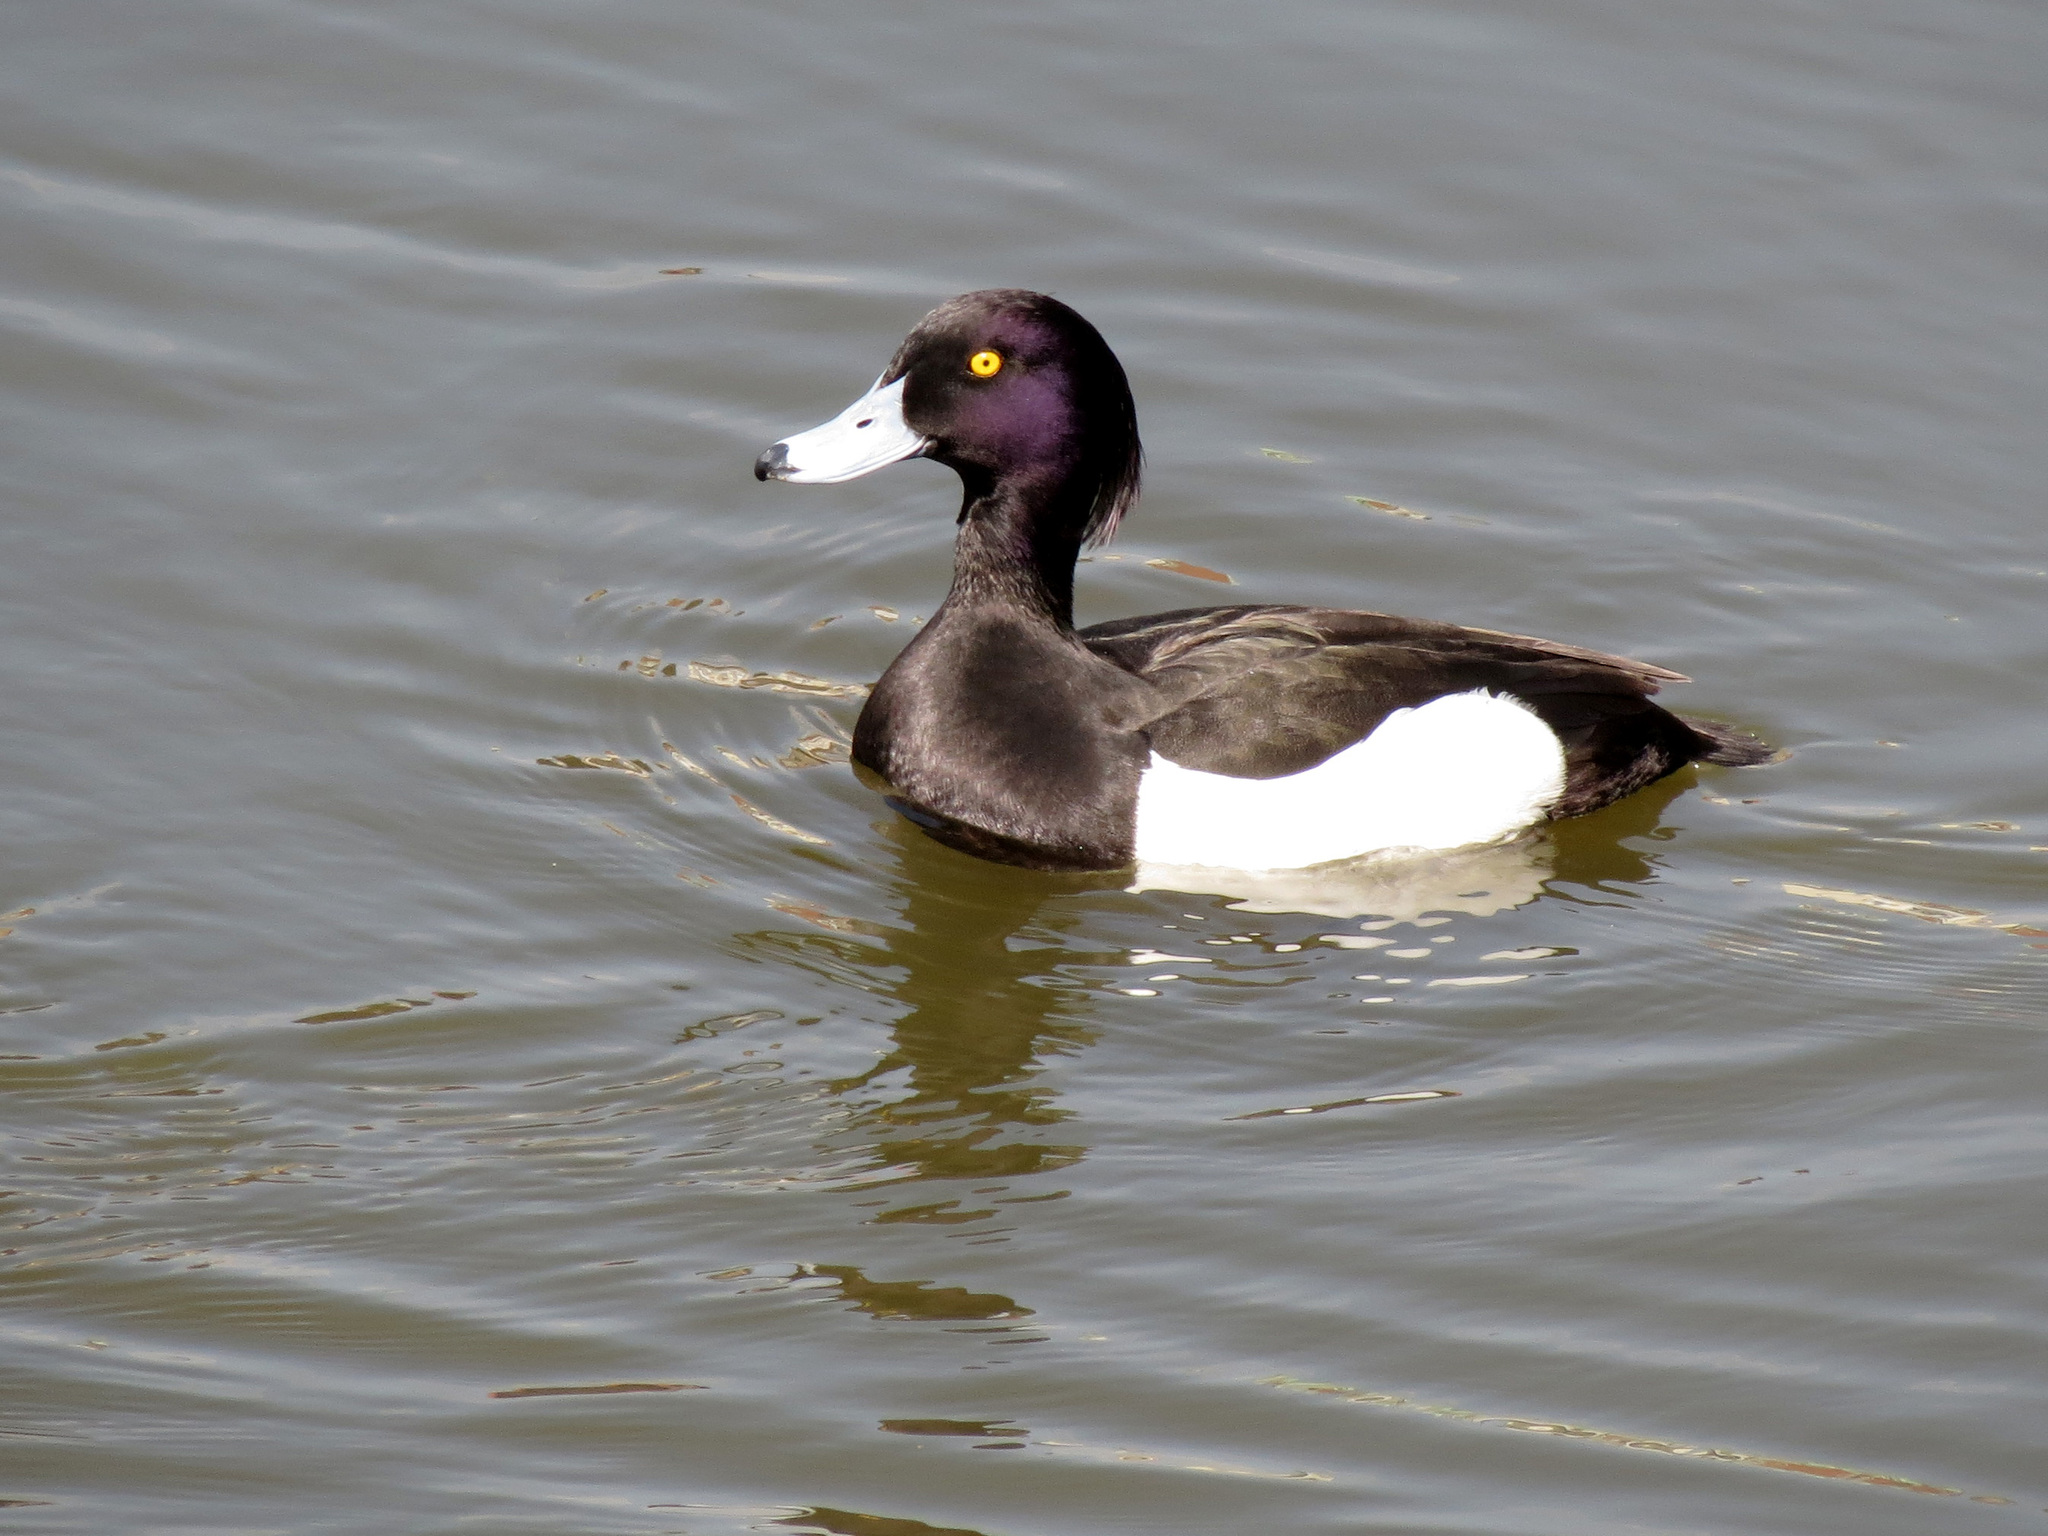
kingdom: Animalia
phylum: Chordata
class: Aves
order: Anseriformes
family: Anatidae
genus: Aythya
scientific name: Aythya fuligula
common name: Tufted duck
